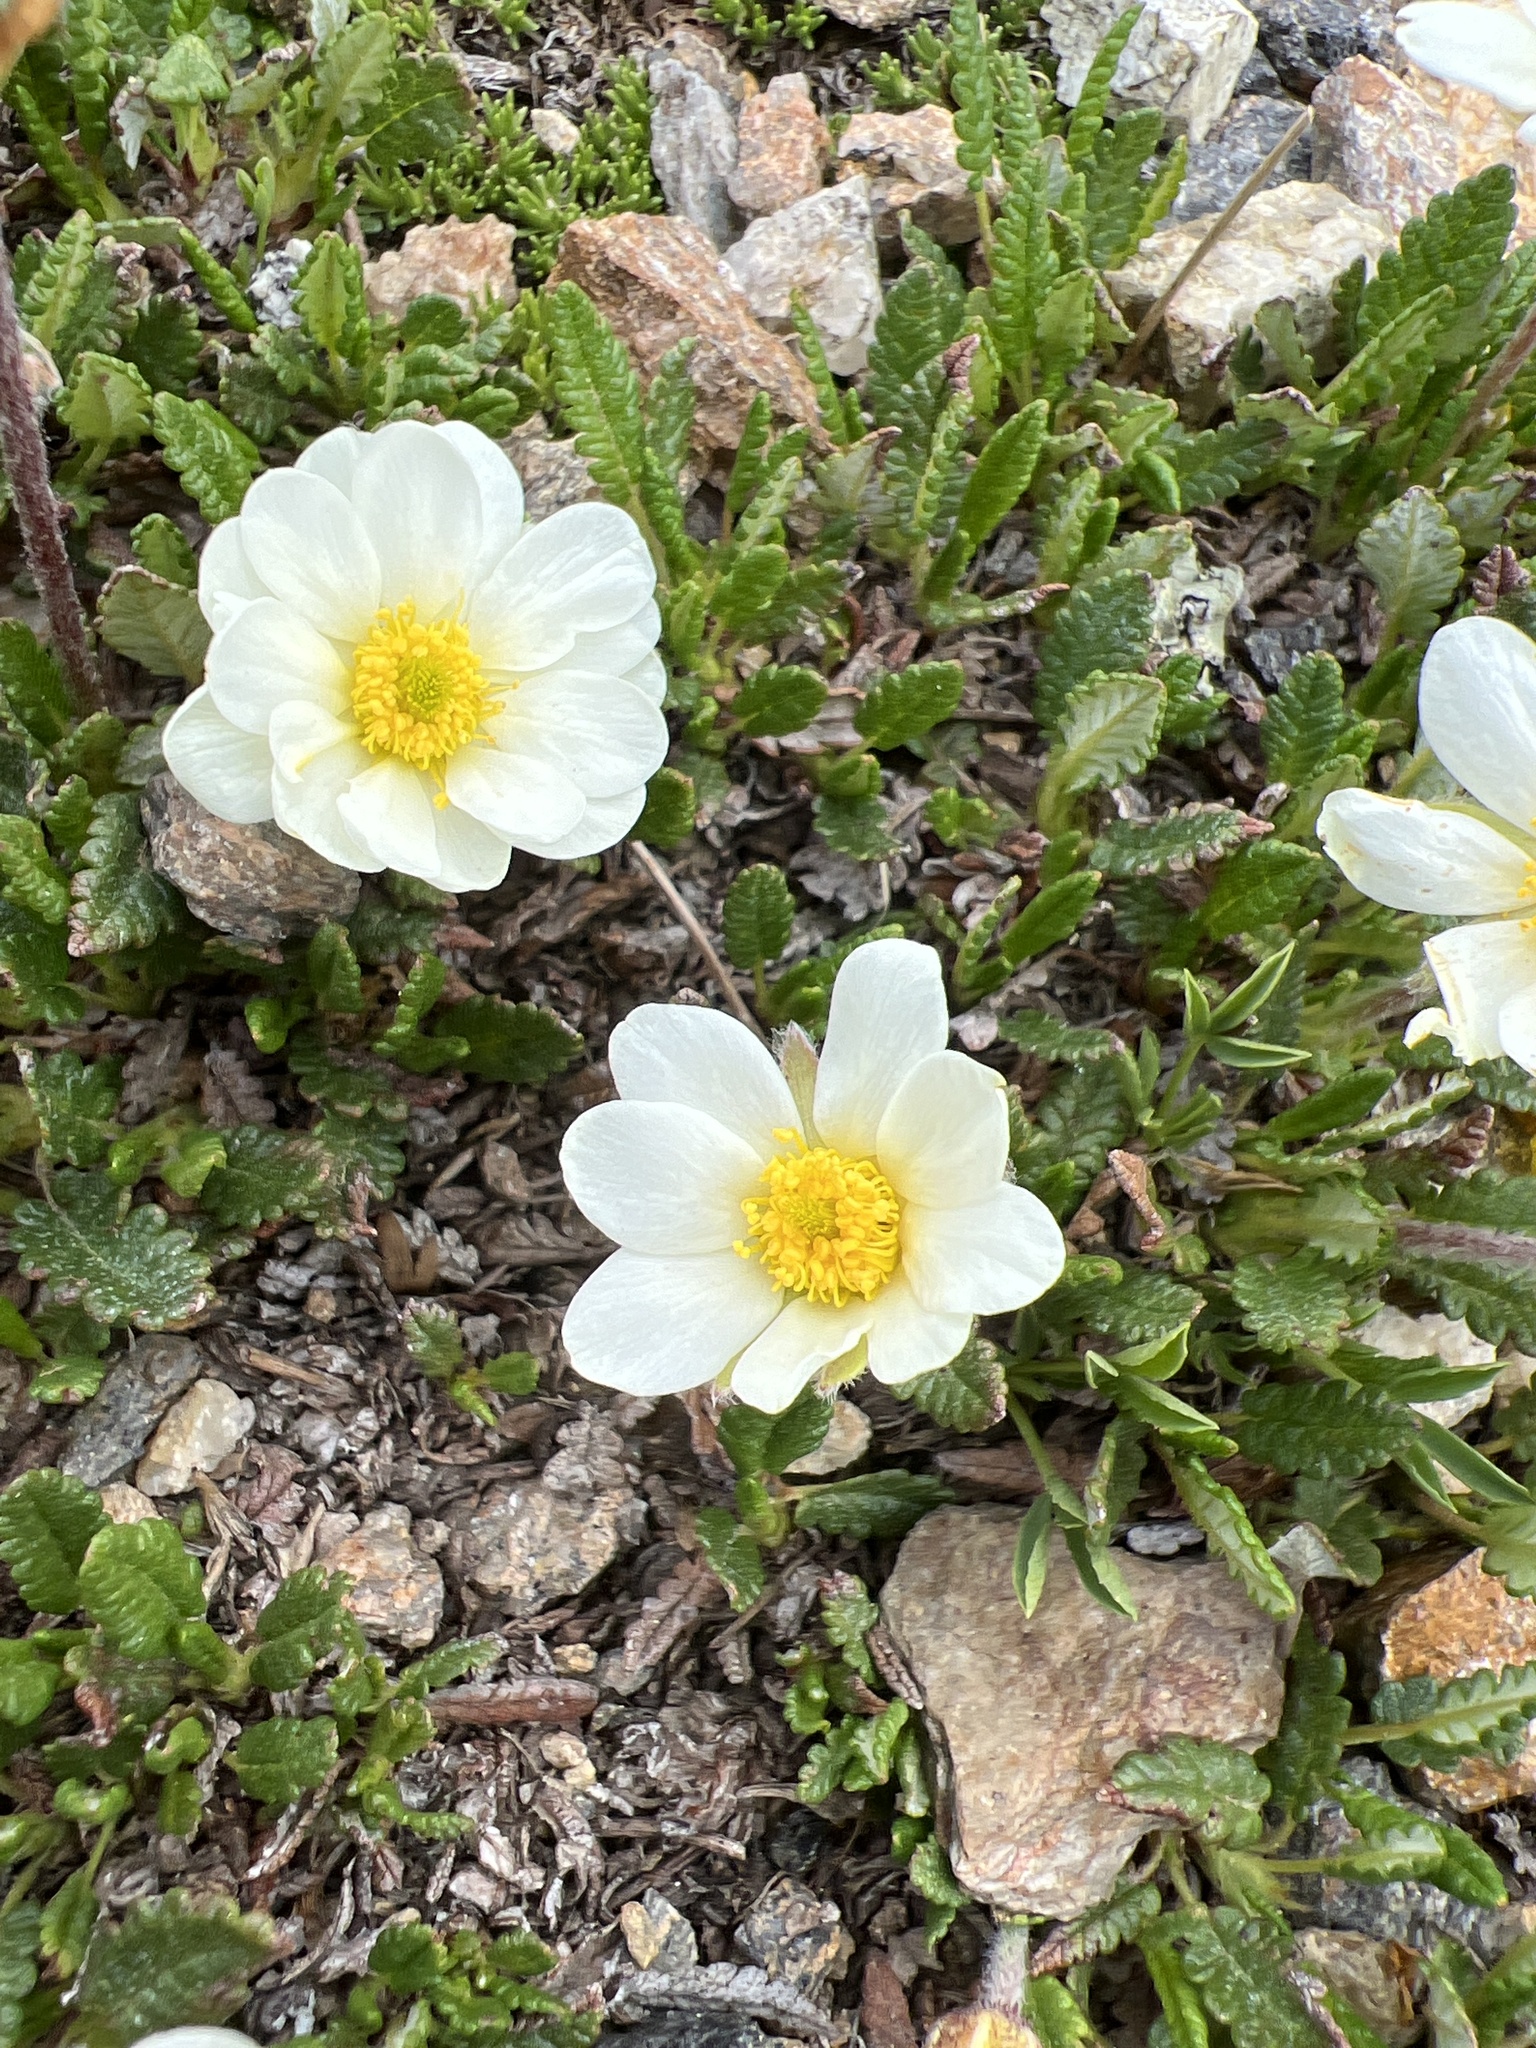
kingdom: Plantae
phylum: Tracheophyta
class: Magnoliopsida
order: Rosales
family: Rosaceae
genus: Dryas
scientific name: Dryas octopetala
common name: Eight-petal mountain-avens
